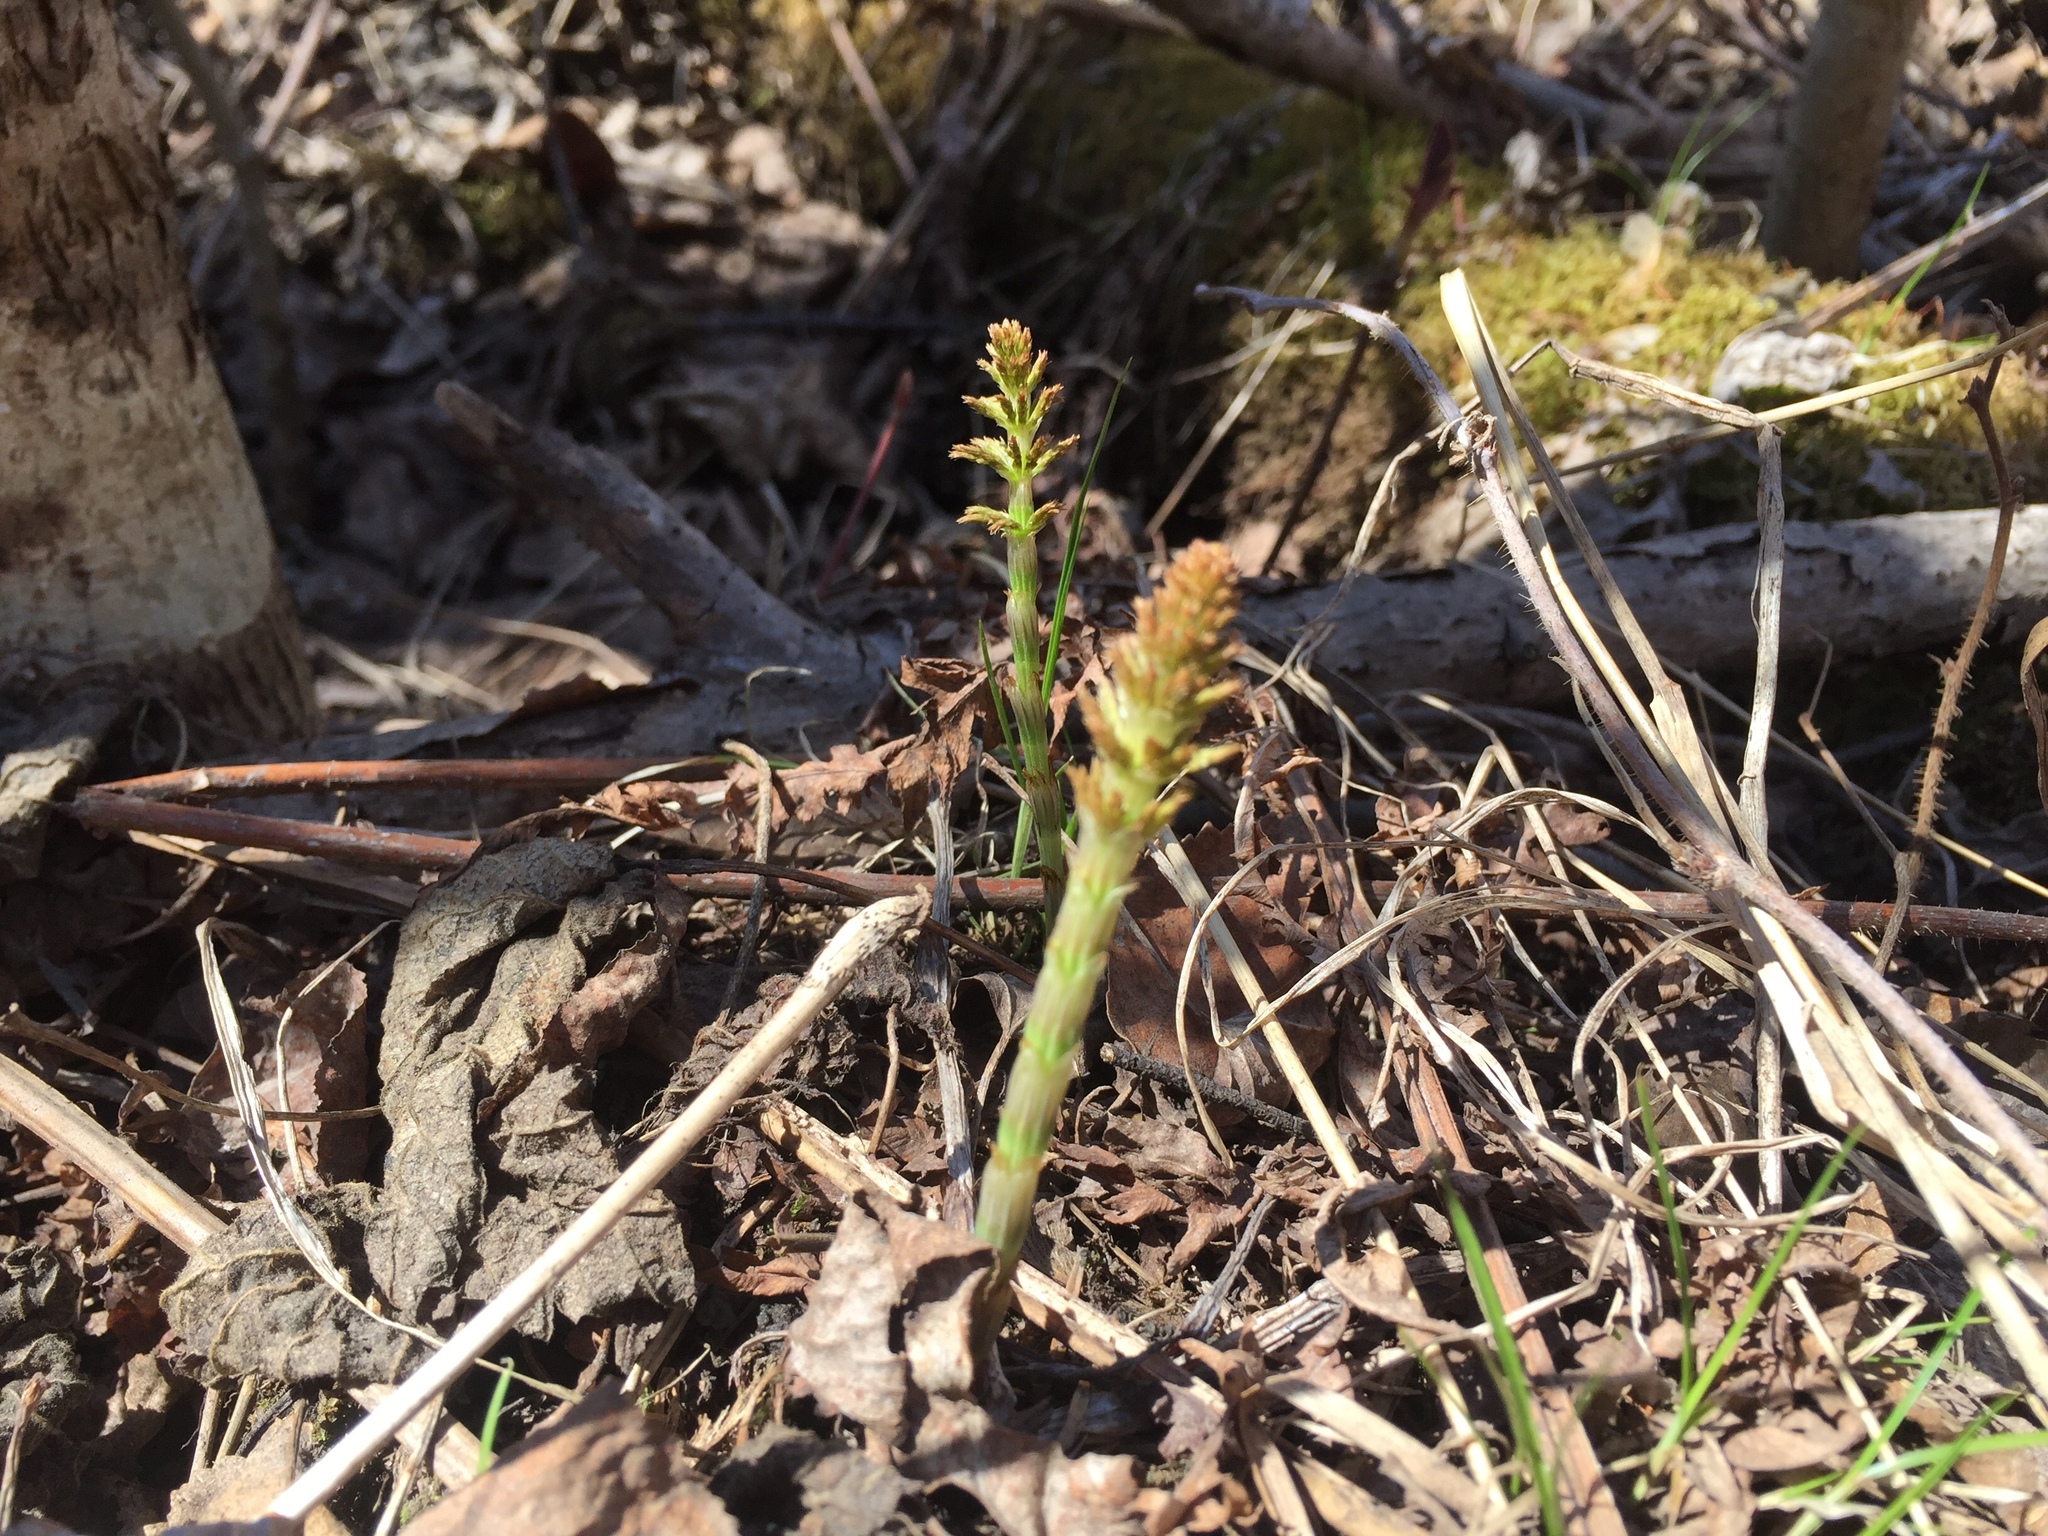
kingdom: Plantae
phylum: Tracheophyta
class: Polypodiopsida
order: Equisetales
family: Equisetaceae
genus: Equisetum
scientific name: Equisetum sylvaticum
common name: Wood horsetail
